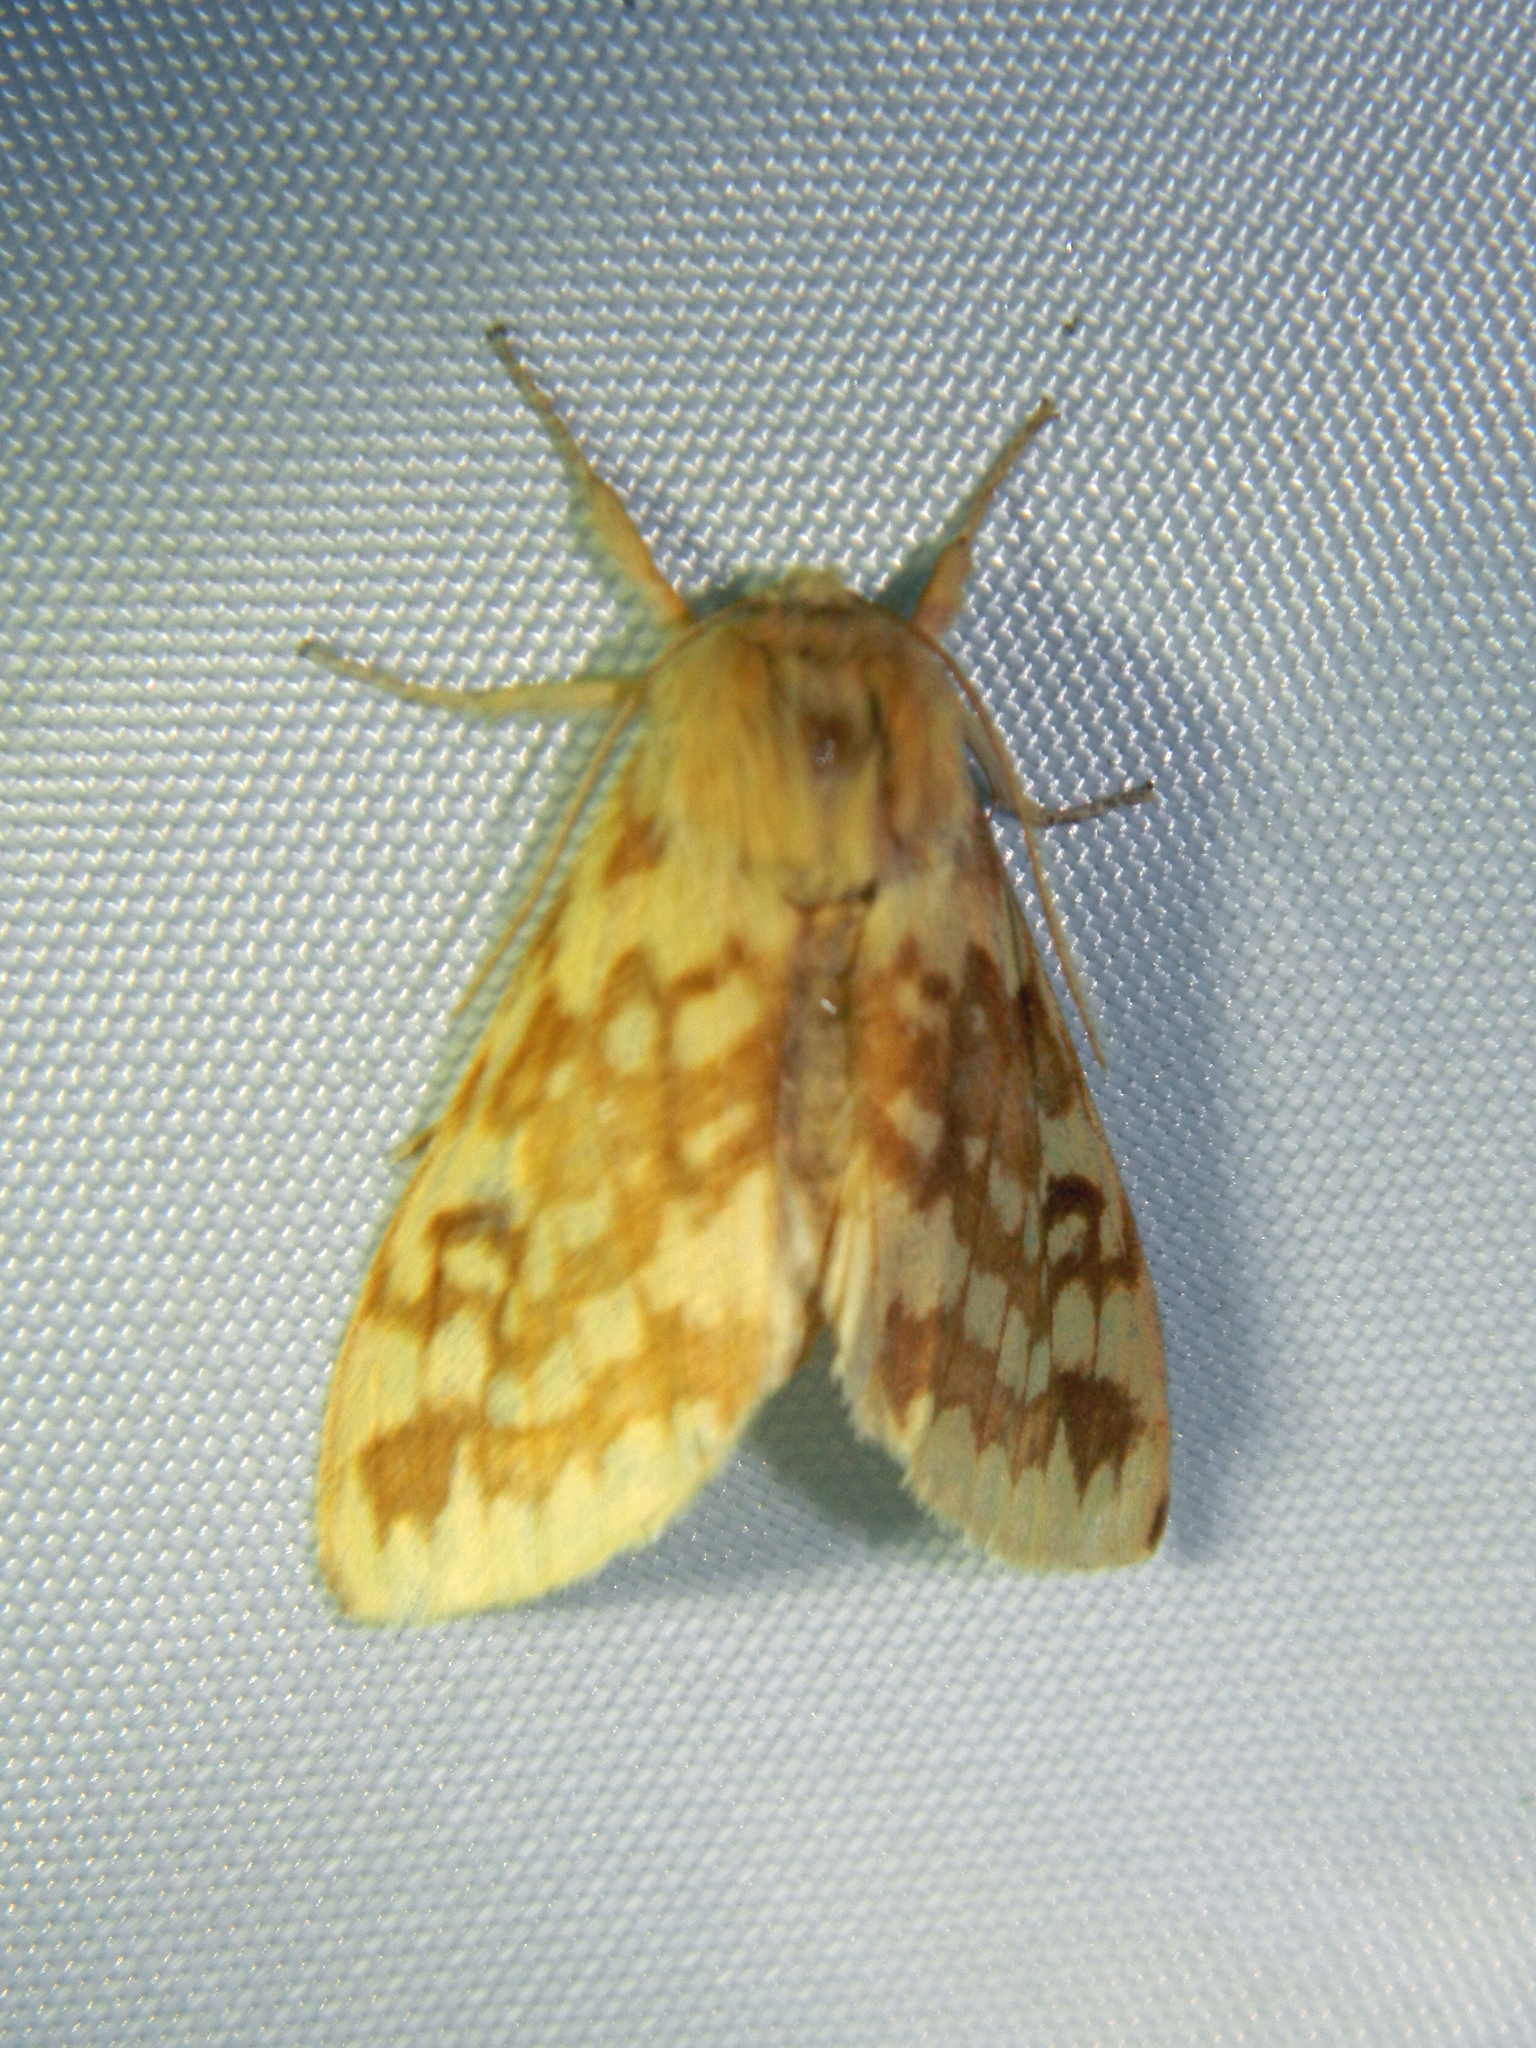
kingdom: Animalia
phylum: Arthropoda
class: Insecta
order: Lepidoptera
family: Erebidae
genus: Lophocampa
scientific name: Lophocampa maculata
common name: Spotted tussock moth
